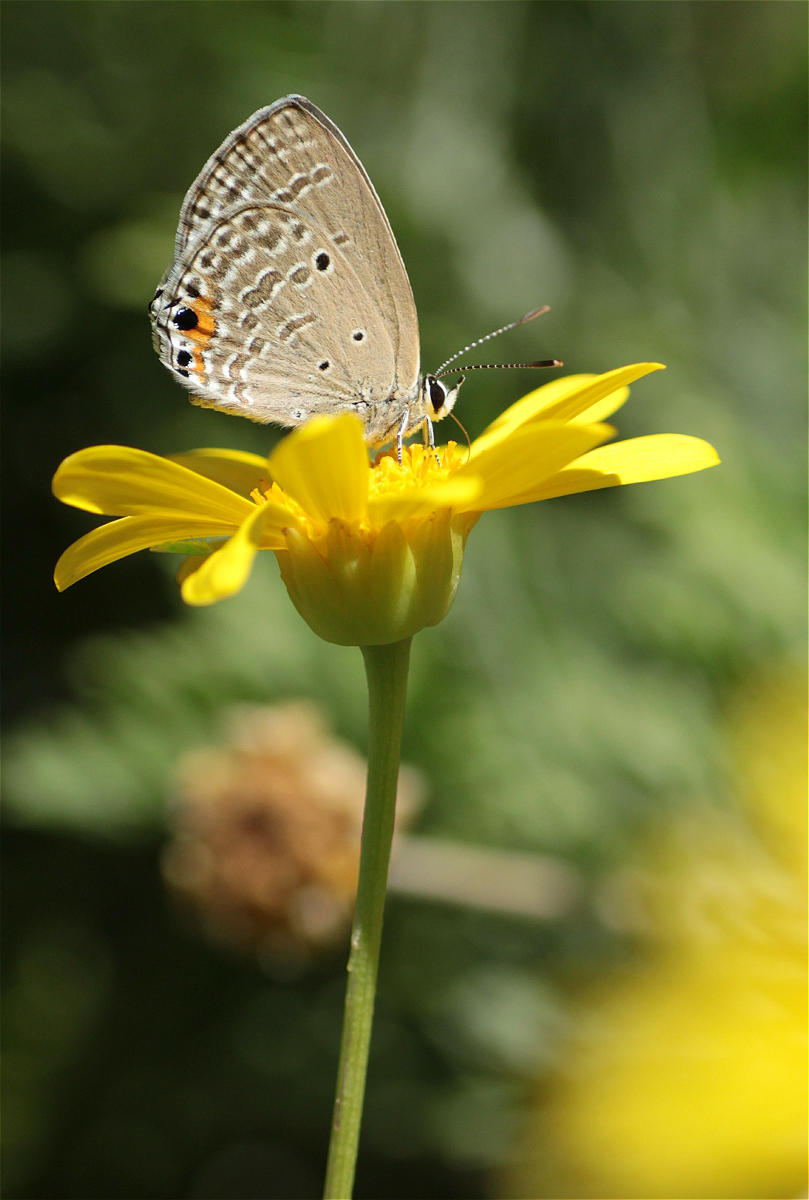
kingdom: Animalia
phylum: Arthropoda
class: Insecta
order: Lepidoptera
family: Lycaenidae
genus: Luthrodes
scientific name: Luthrodes pandava
